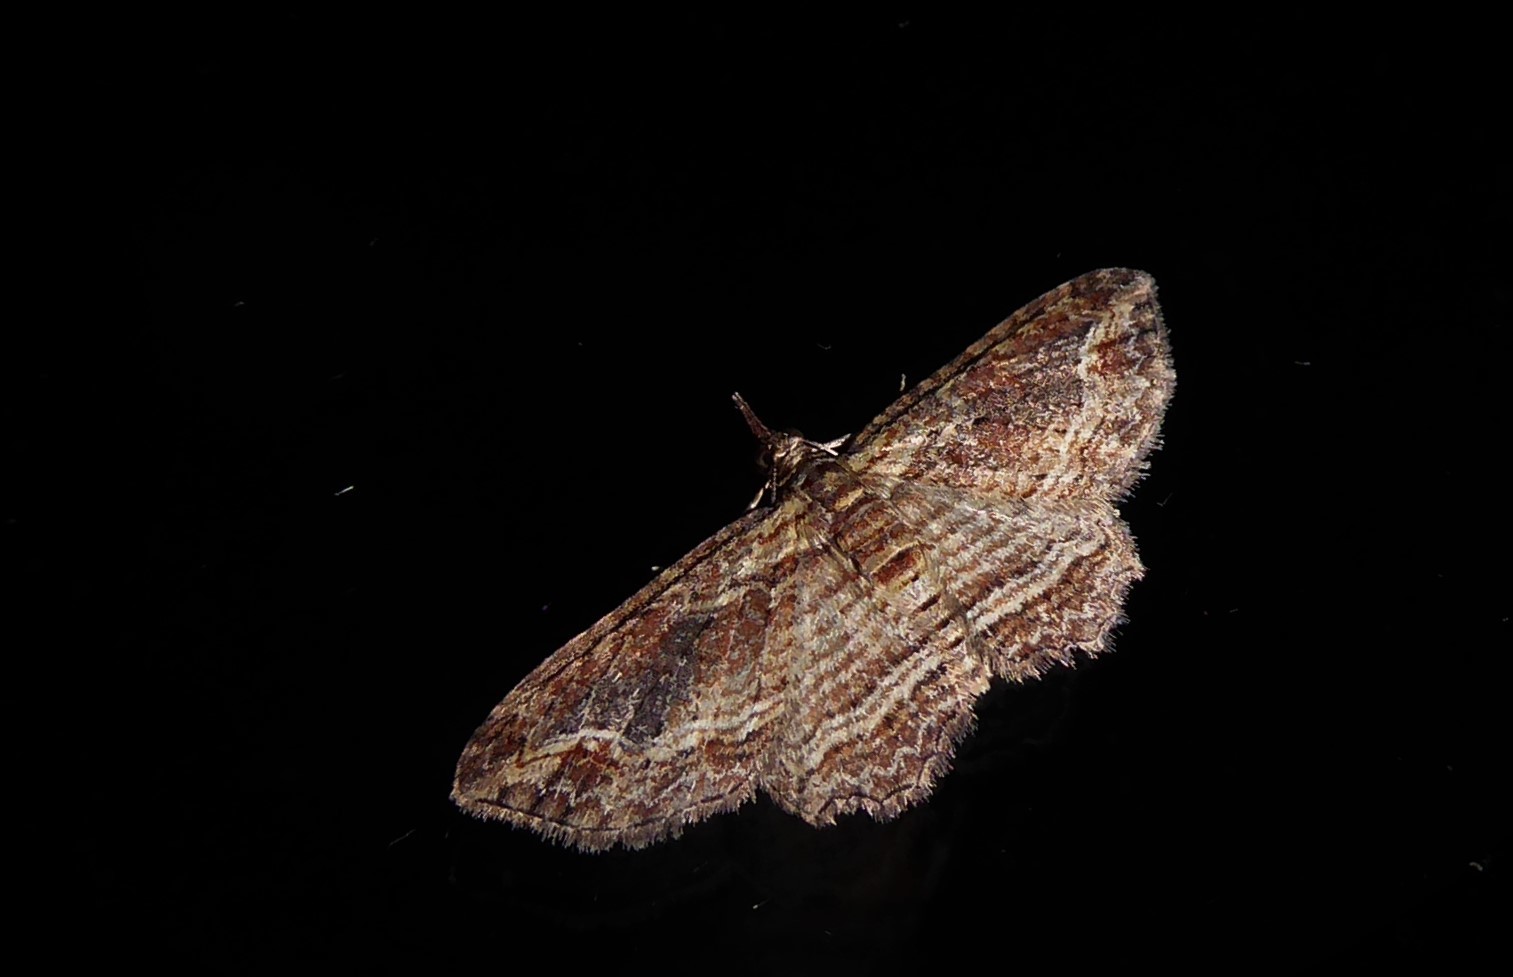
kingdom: Animalia
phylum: Arthropoda
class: Insecta
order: Lepidoptera
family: Geometridae
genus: Chloroclystis
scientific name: Chloroclystis filata
